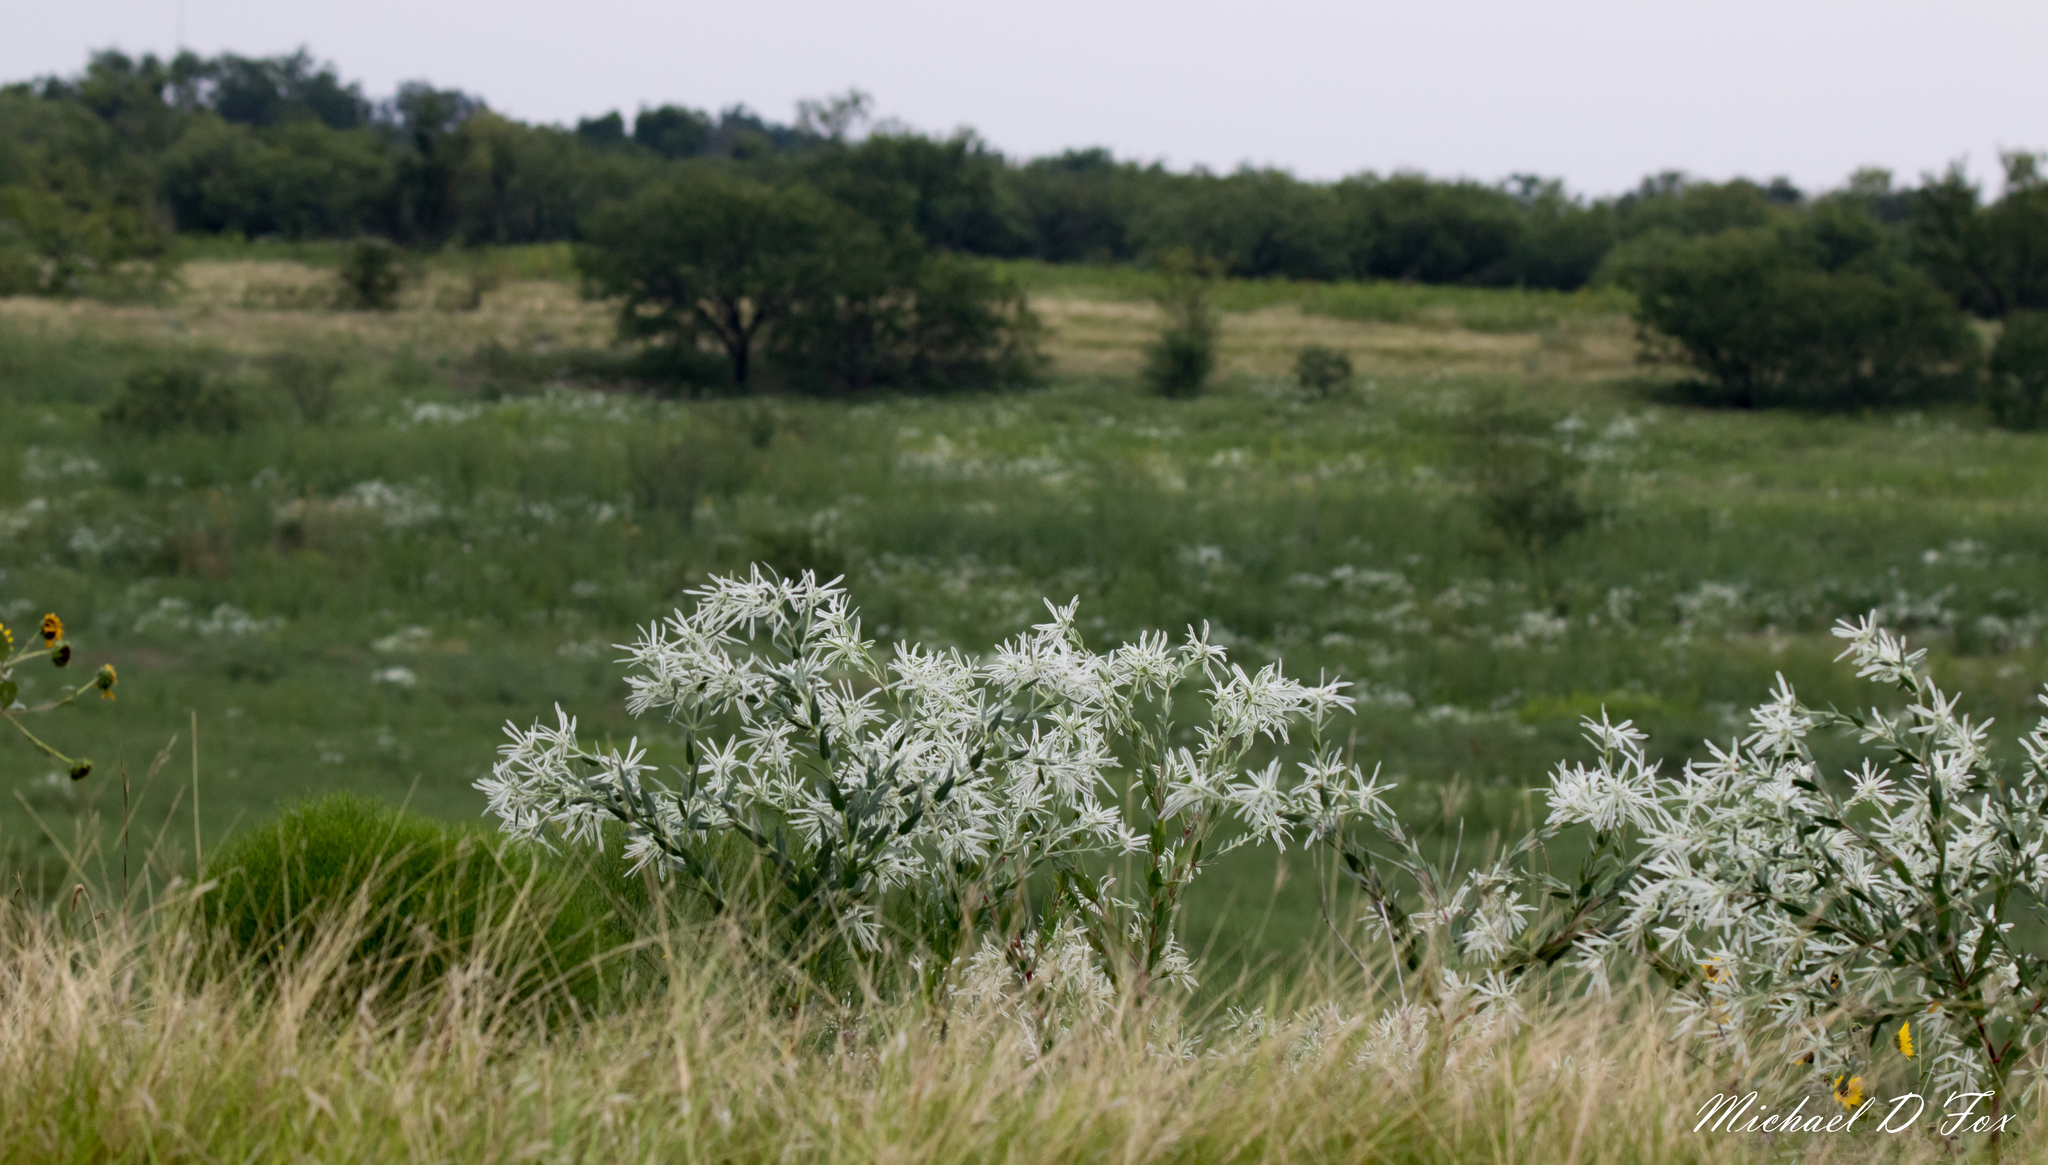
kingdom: Plantae
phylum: Tracheophyta
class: Magnoliopsida
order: Malpighiales
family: Euphorbiaceae
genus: Euphorbia
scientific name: Euphorbia bicolor
